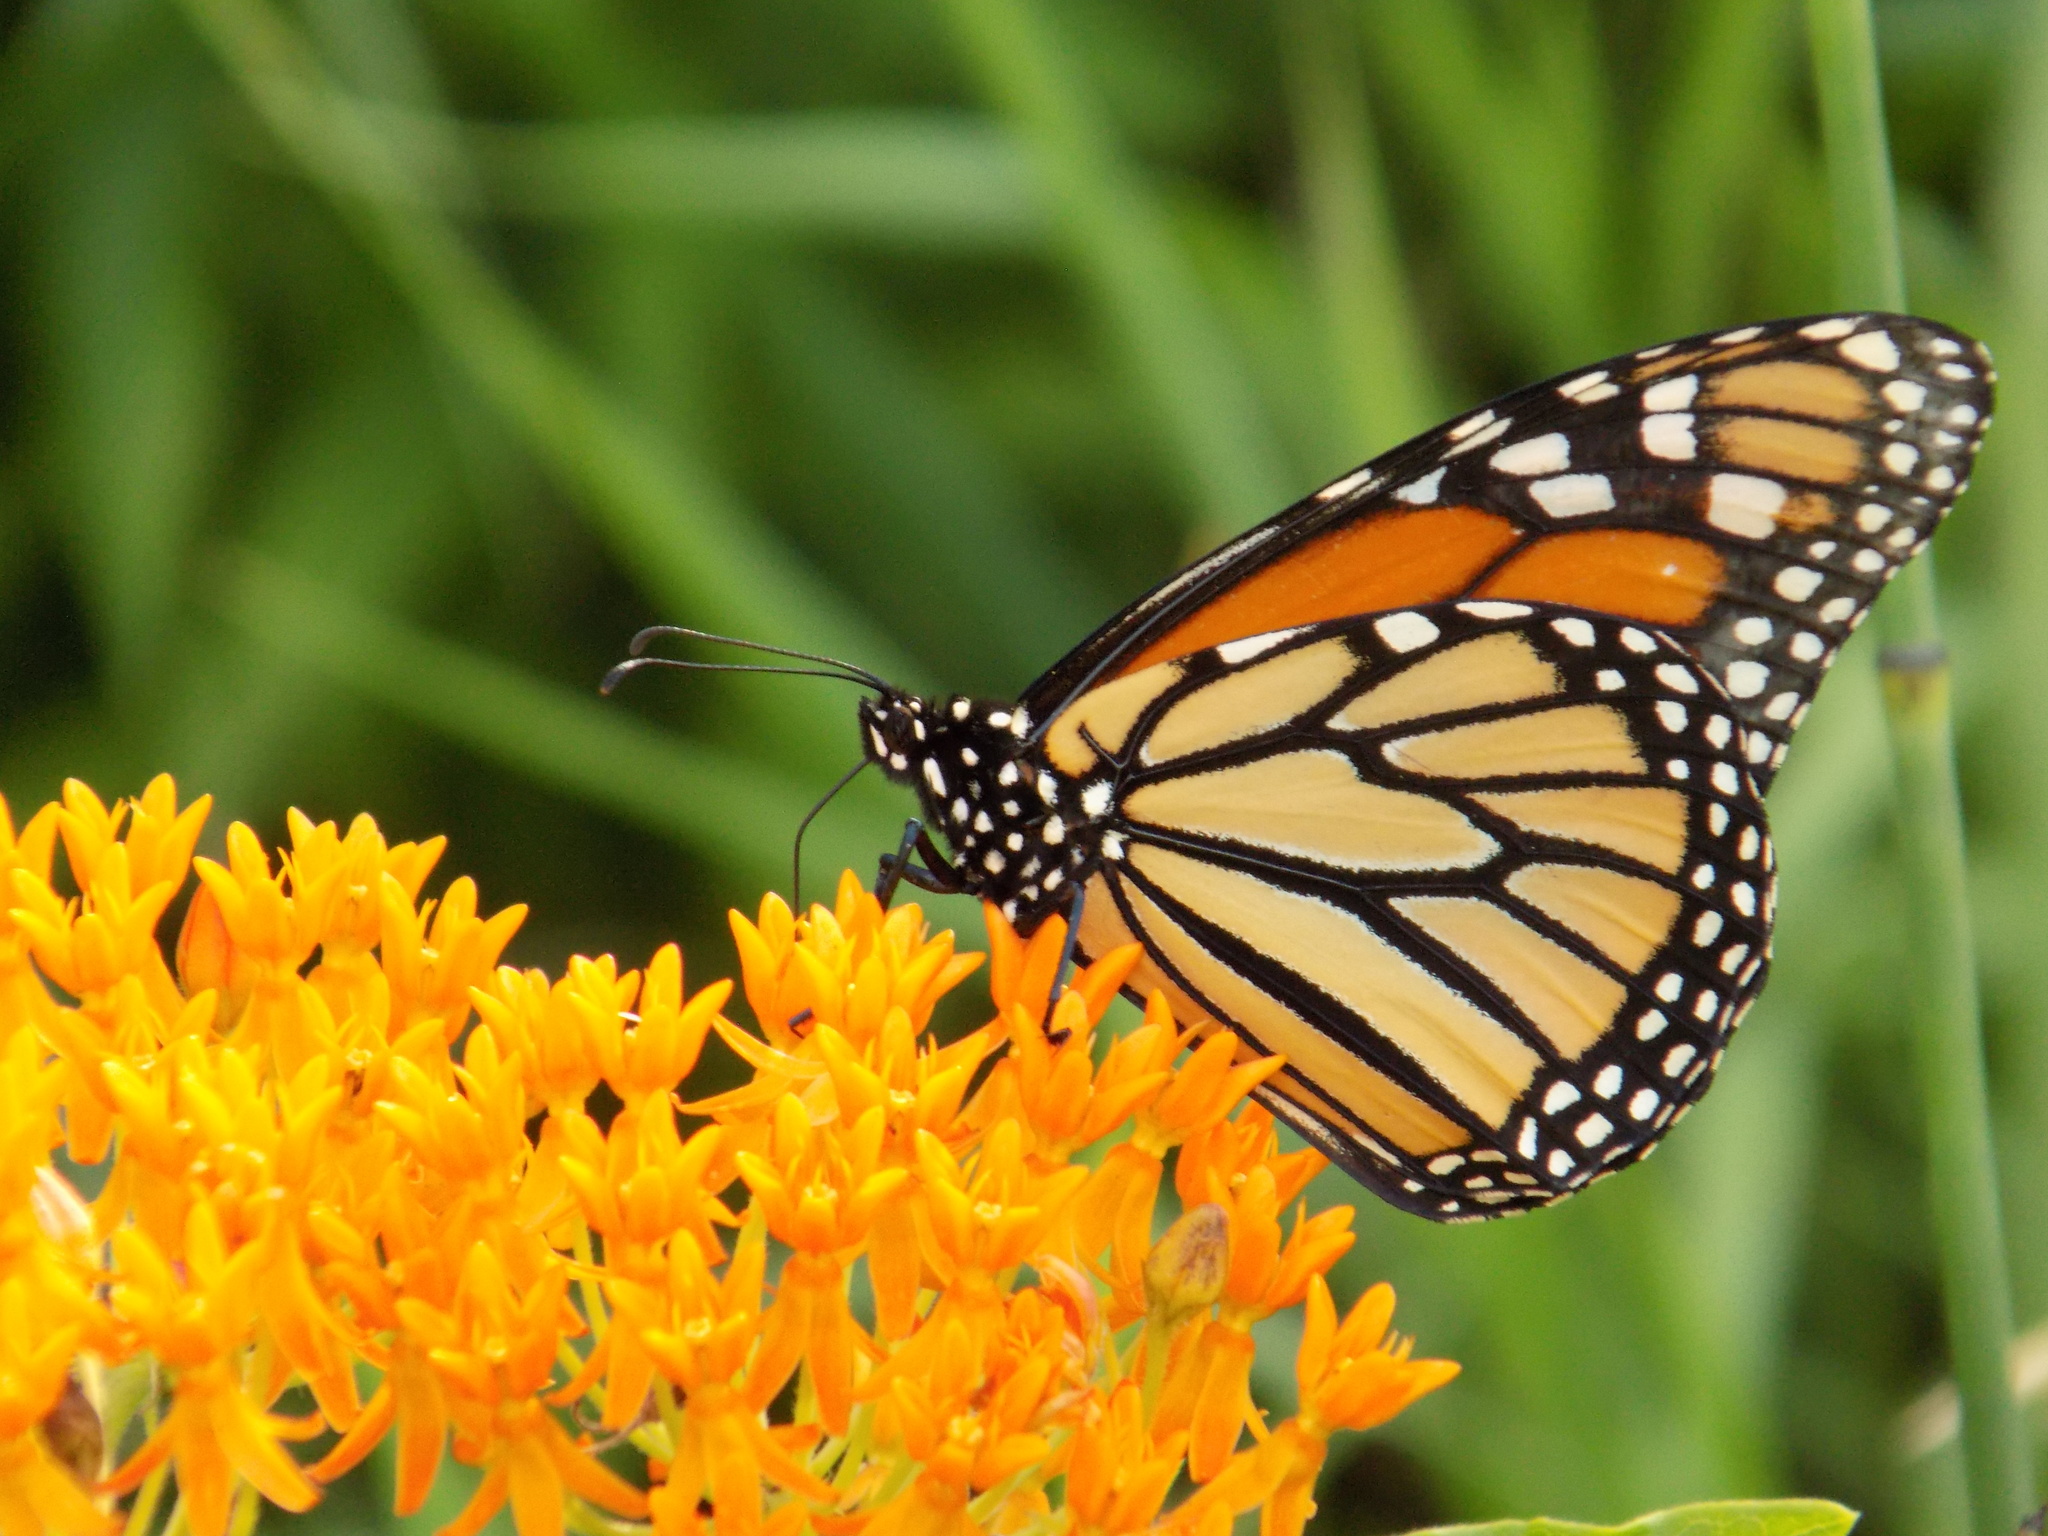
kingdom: Animalia
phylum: Arthropoda
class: Insecta
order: Lepidoptera
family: Nymphalidae
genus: Danaus
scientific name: Danaus plexippus
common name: Monarch
